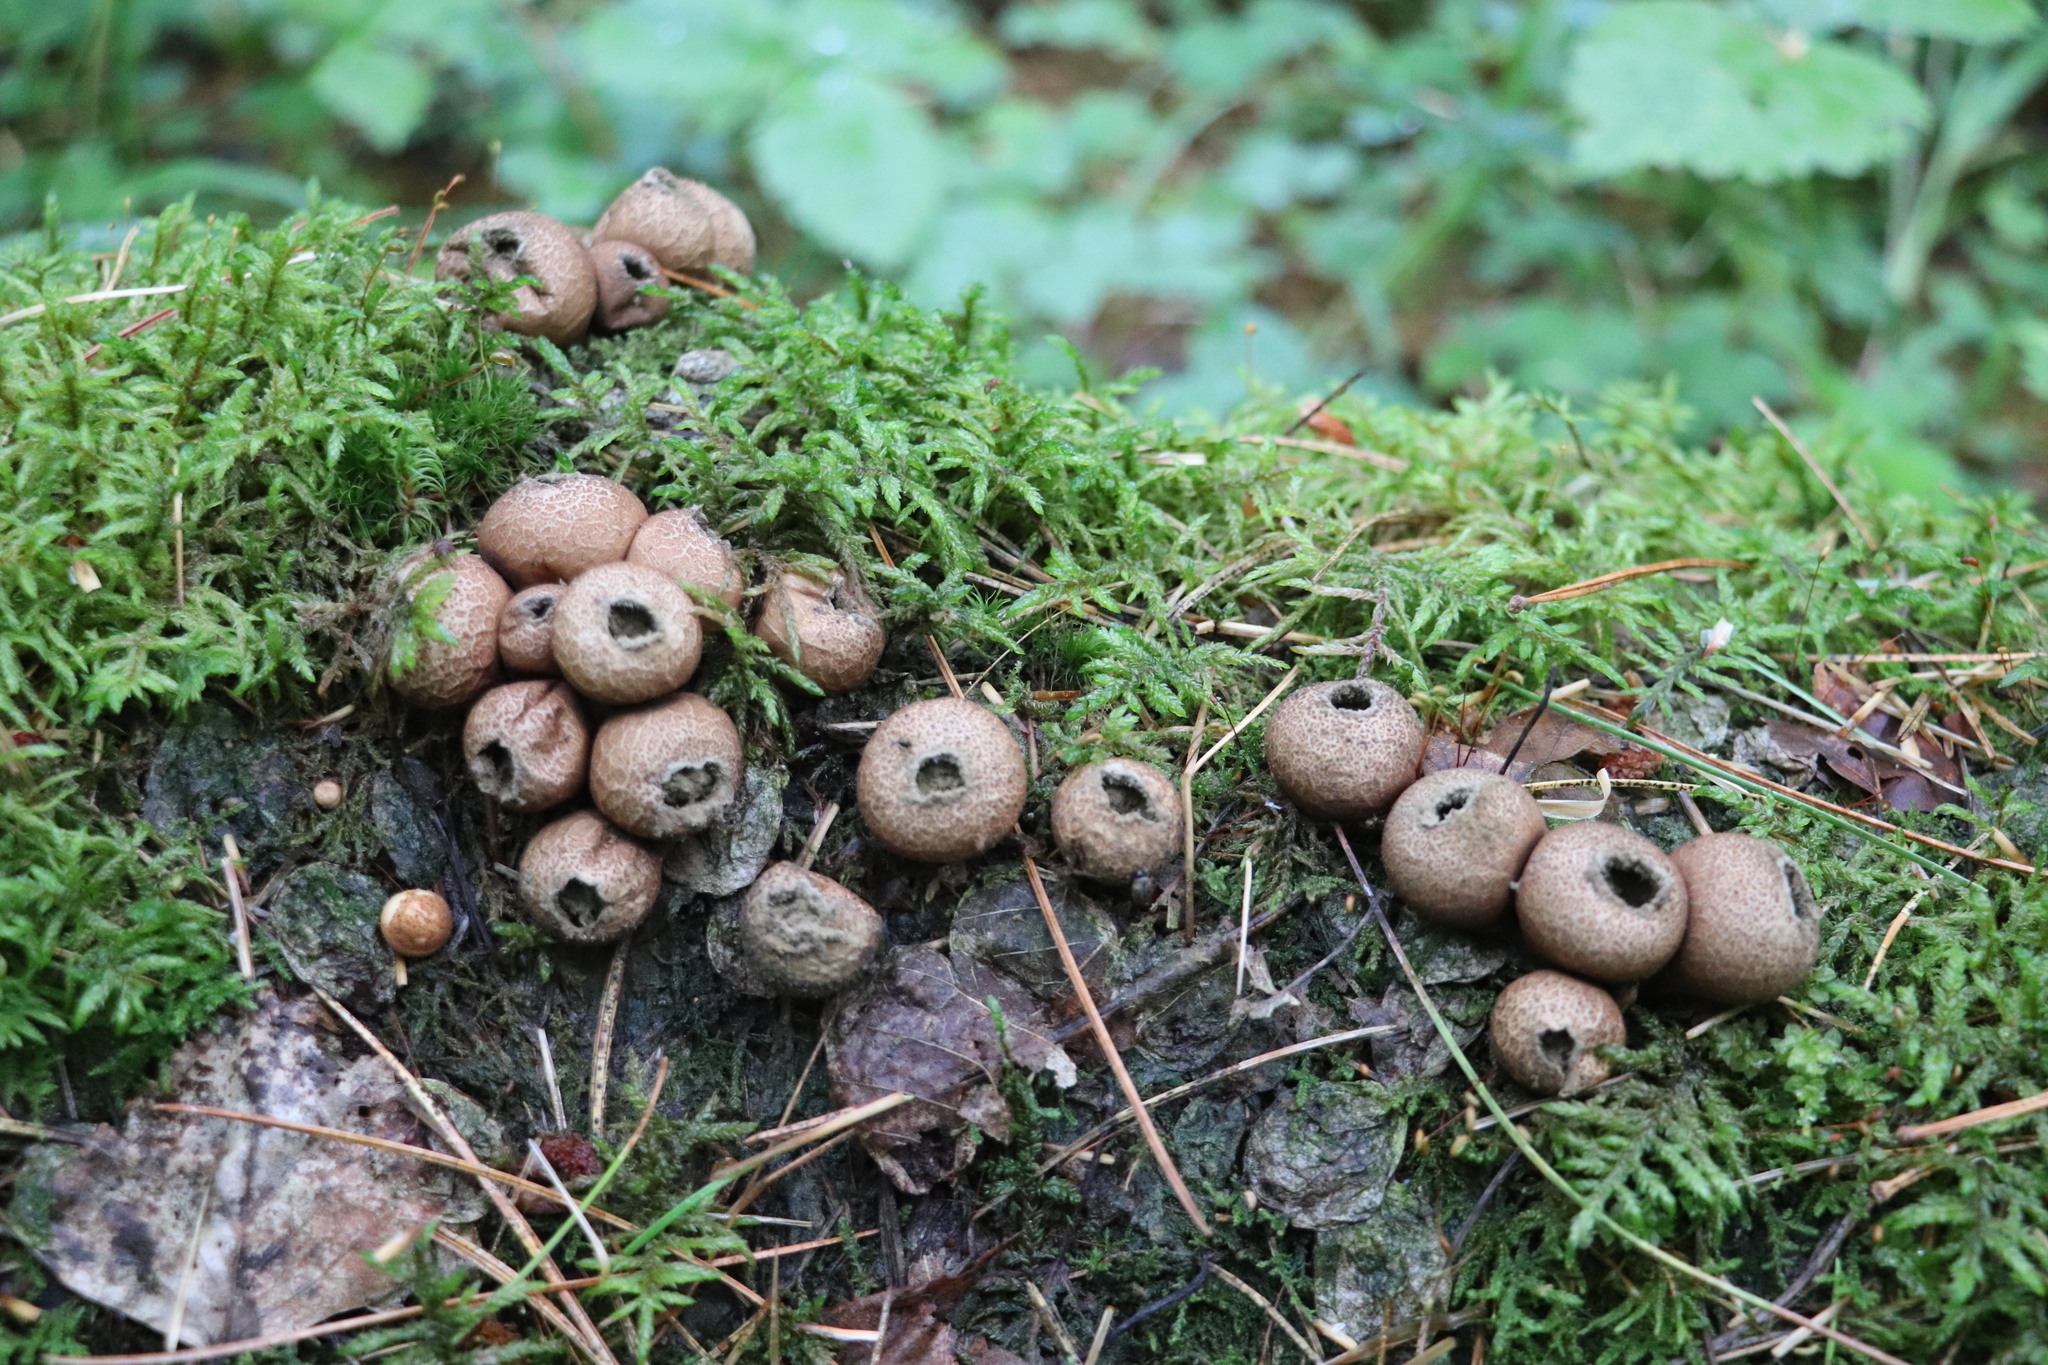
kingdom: Fungi
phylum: Basidiomycota
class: Agaricomycetes
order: Agaricales
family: Lycoperdaceae
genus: Apioperdon
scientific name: Apioperdon pyriforme
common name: Pear-shaped puffball
